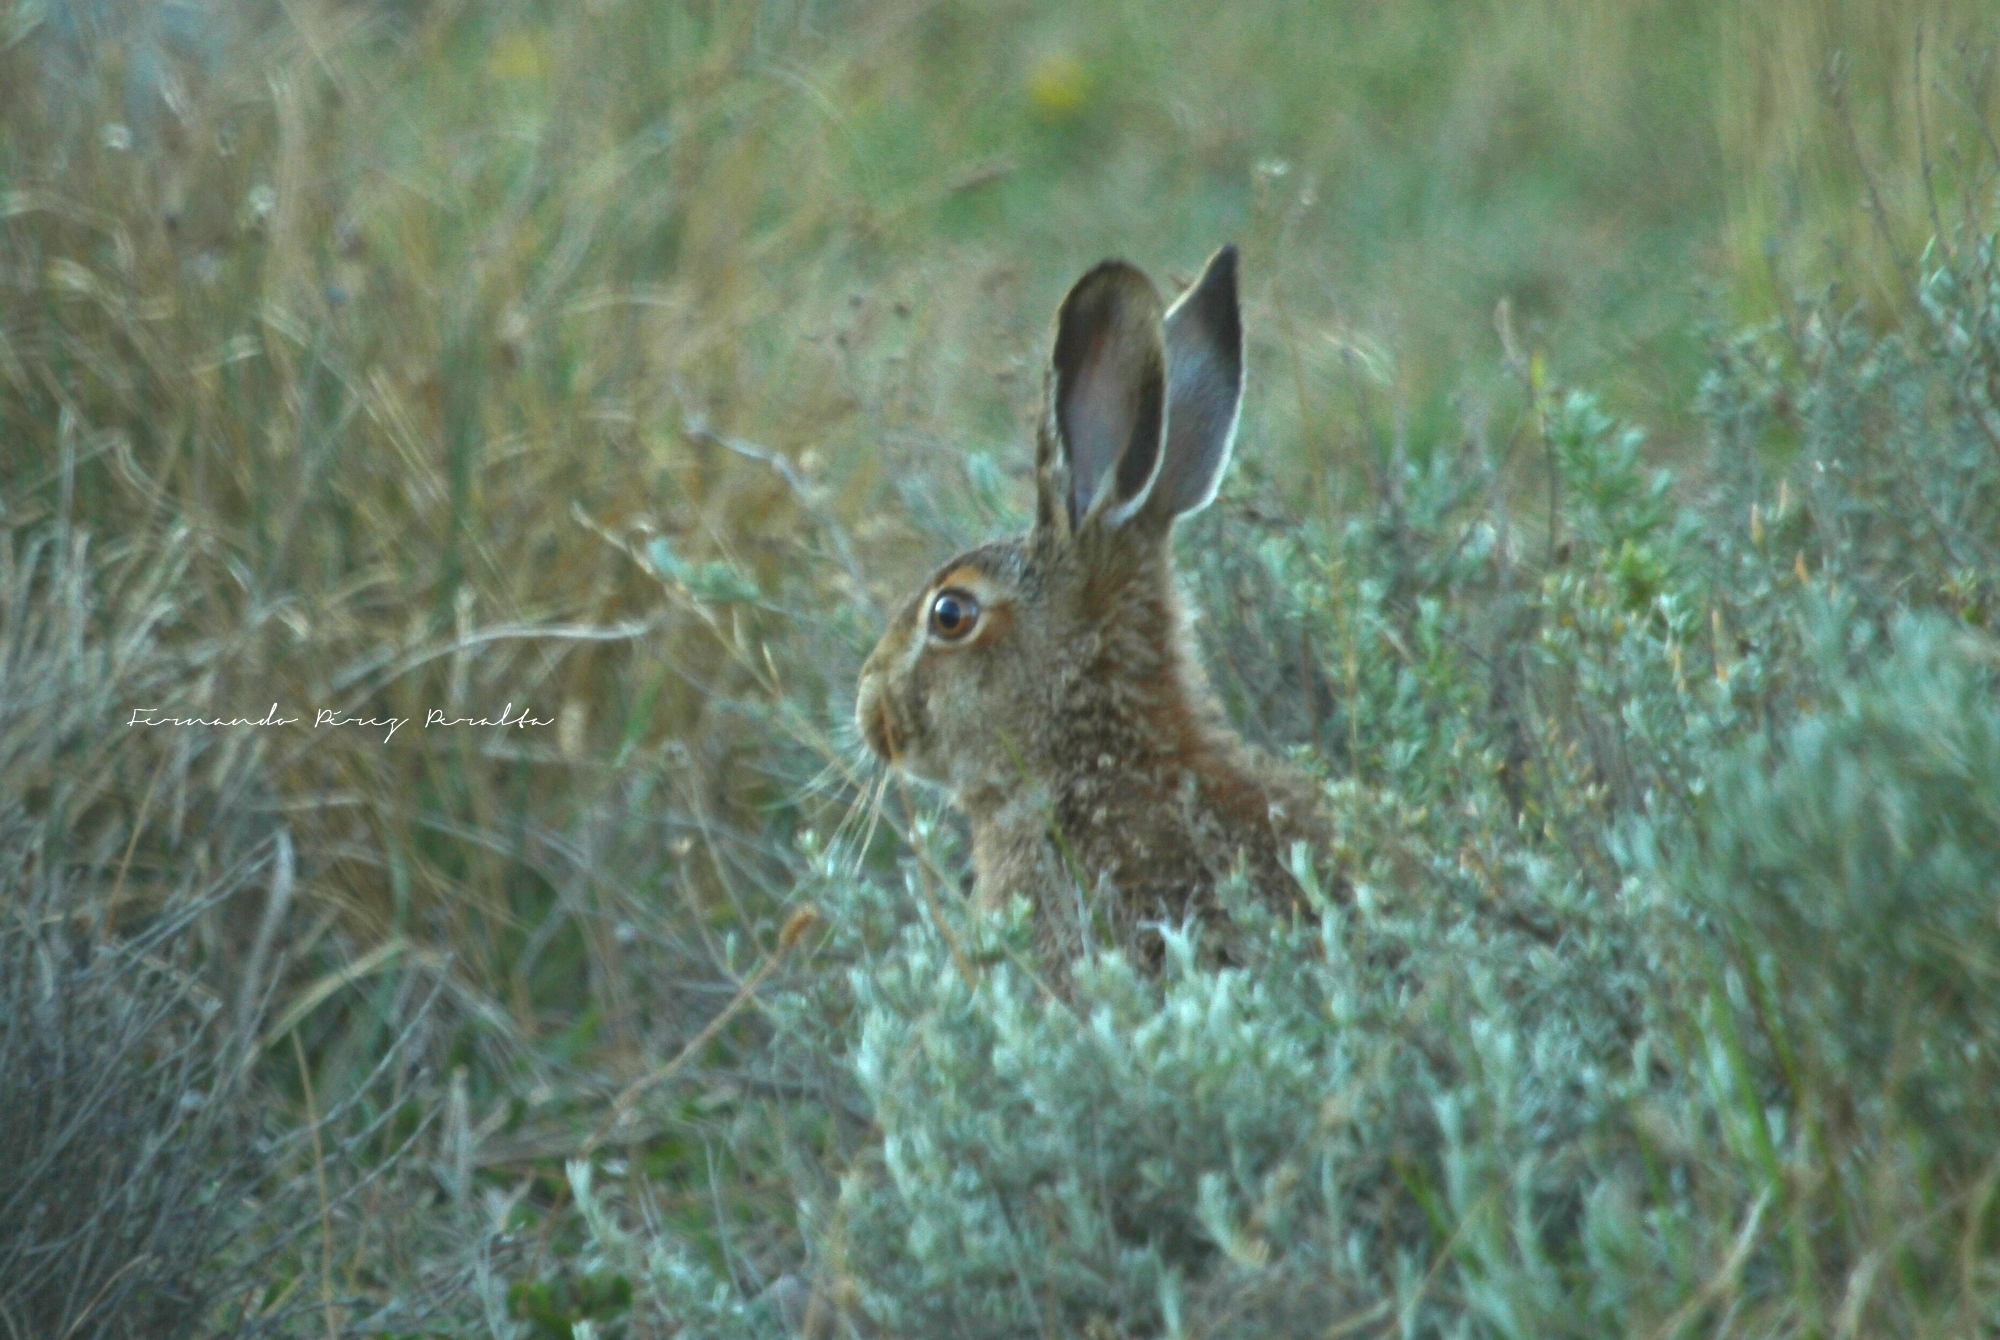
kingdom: Animalia
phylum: Chordata
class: Mammalia
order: Lagomorpha
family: Leporidae
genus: Lepus
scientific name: Lepus europaeus
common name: European hare
